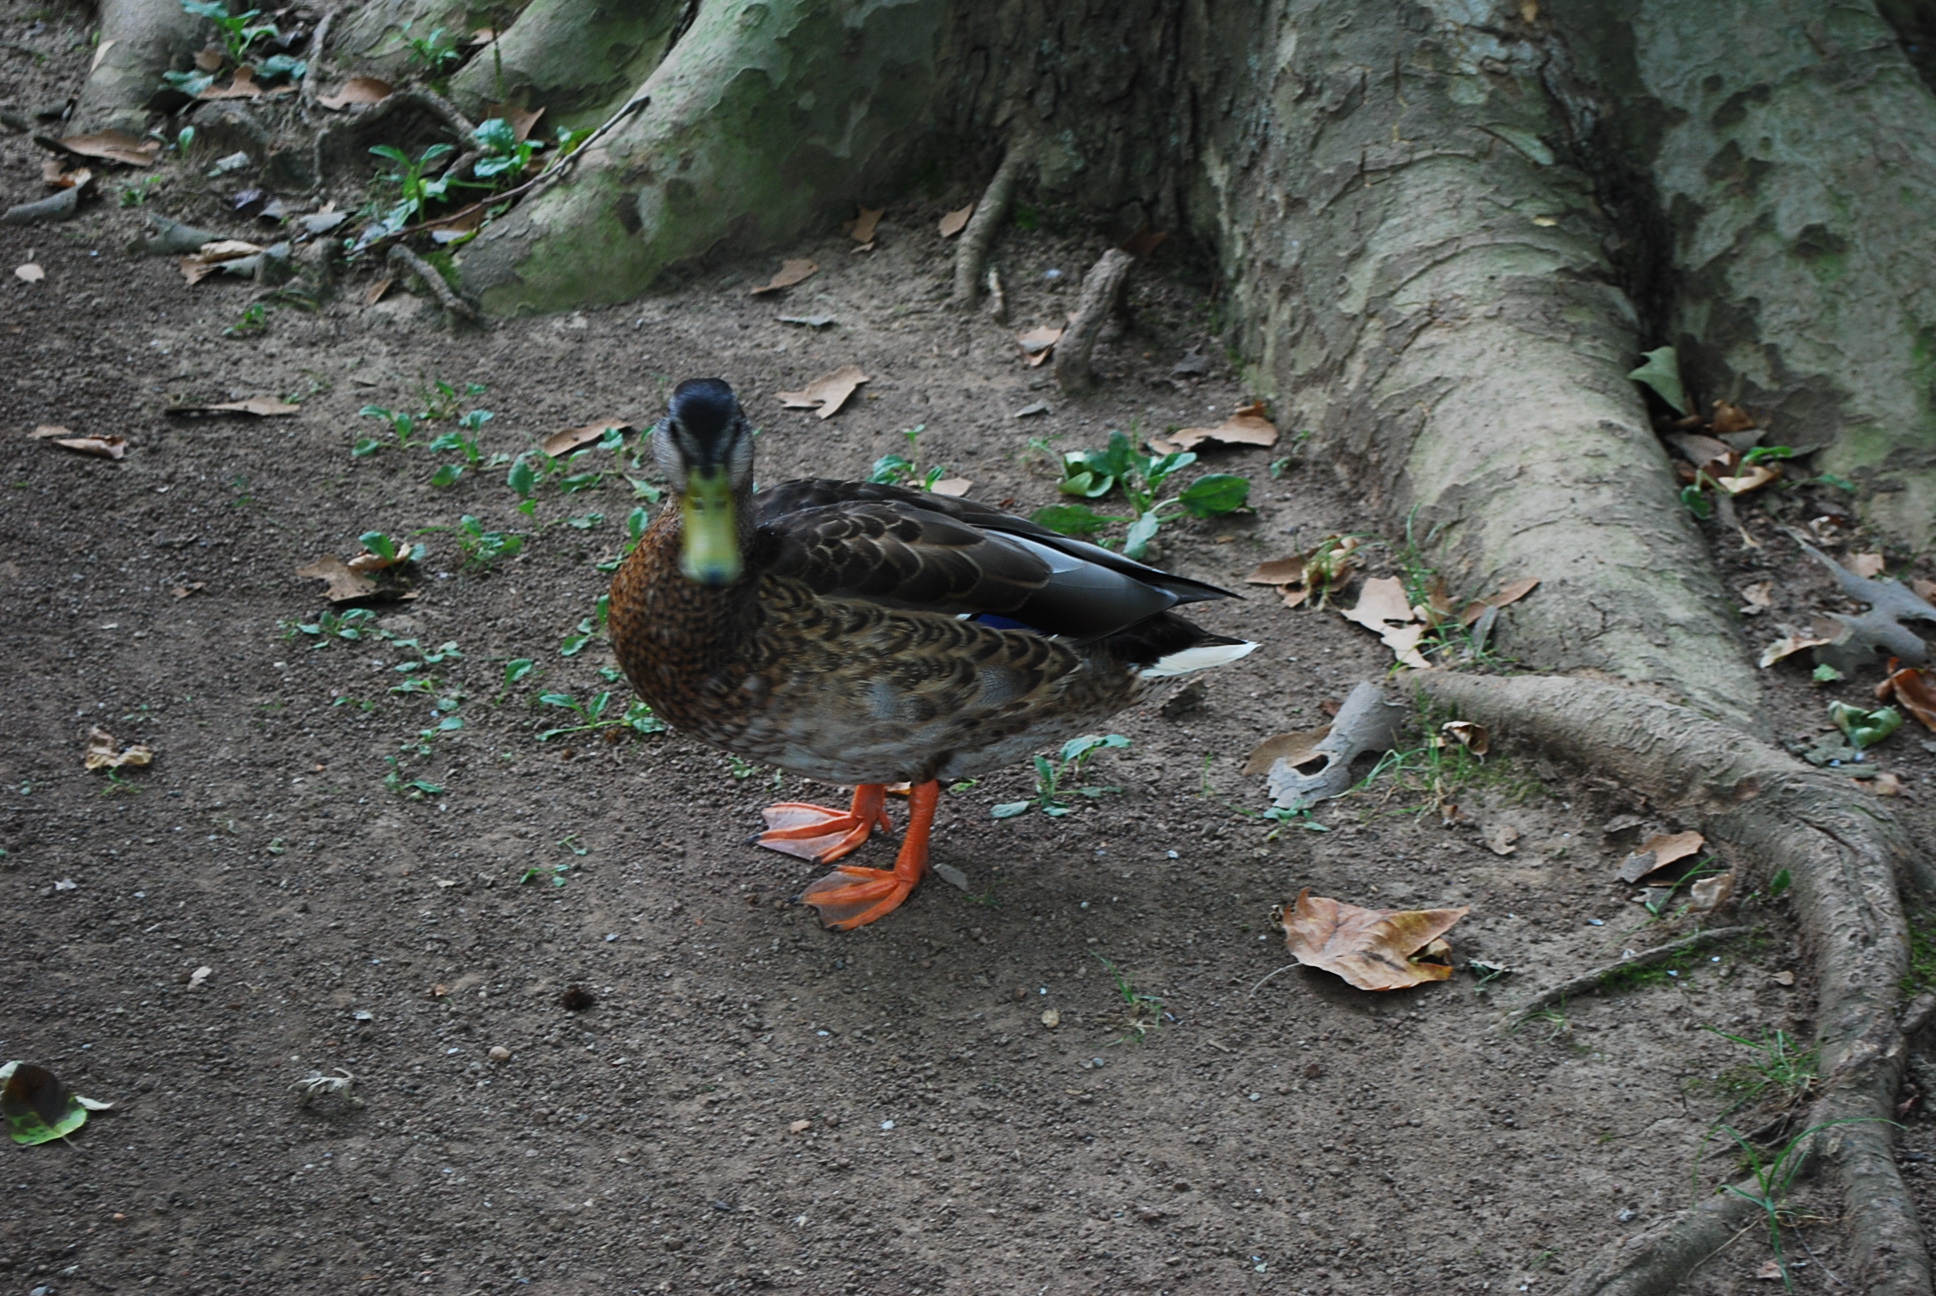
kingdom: Animalia
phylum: Chordata
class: Aves
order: Anseriformes
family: Anatidae
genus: Anas
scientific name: Anas platyrhynchos
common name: Mallard
